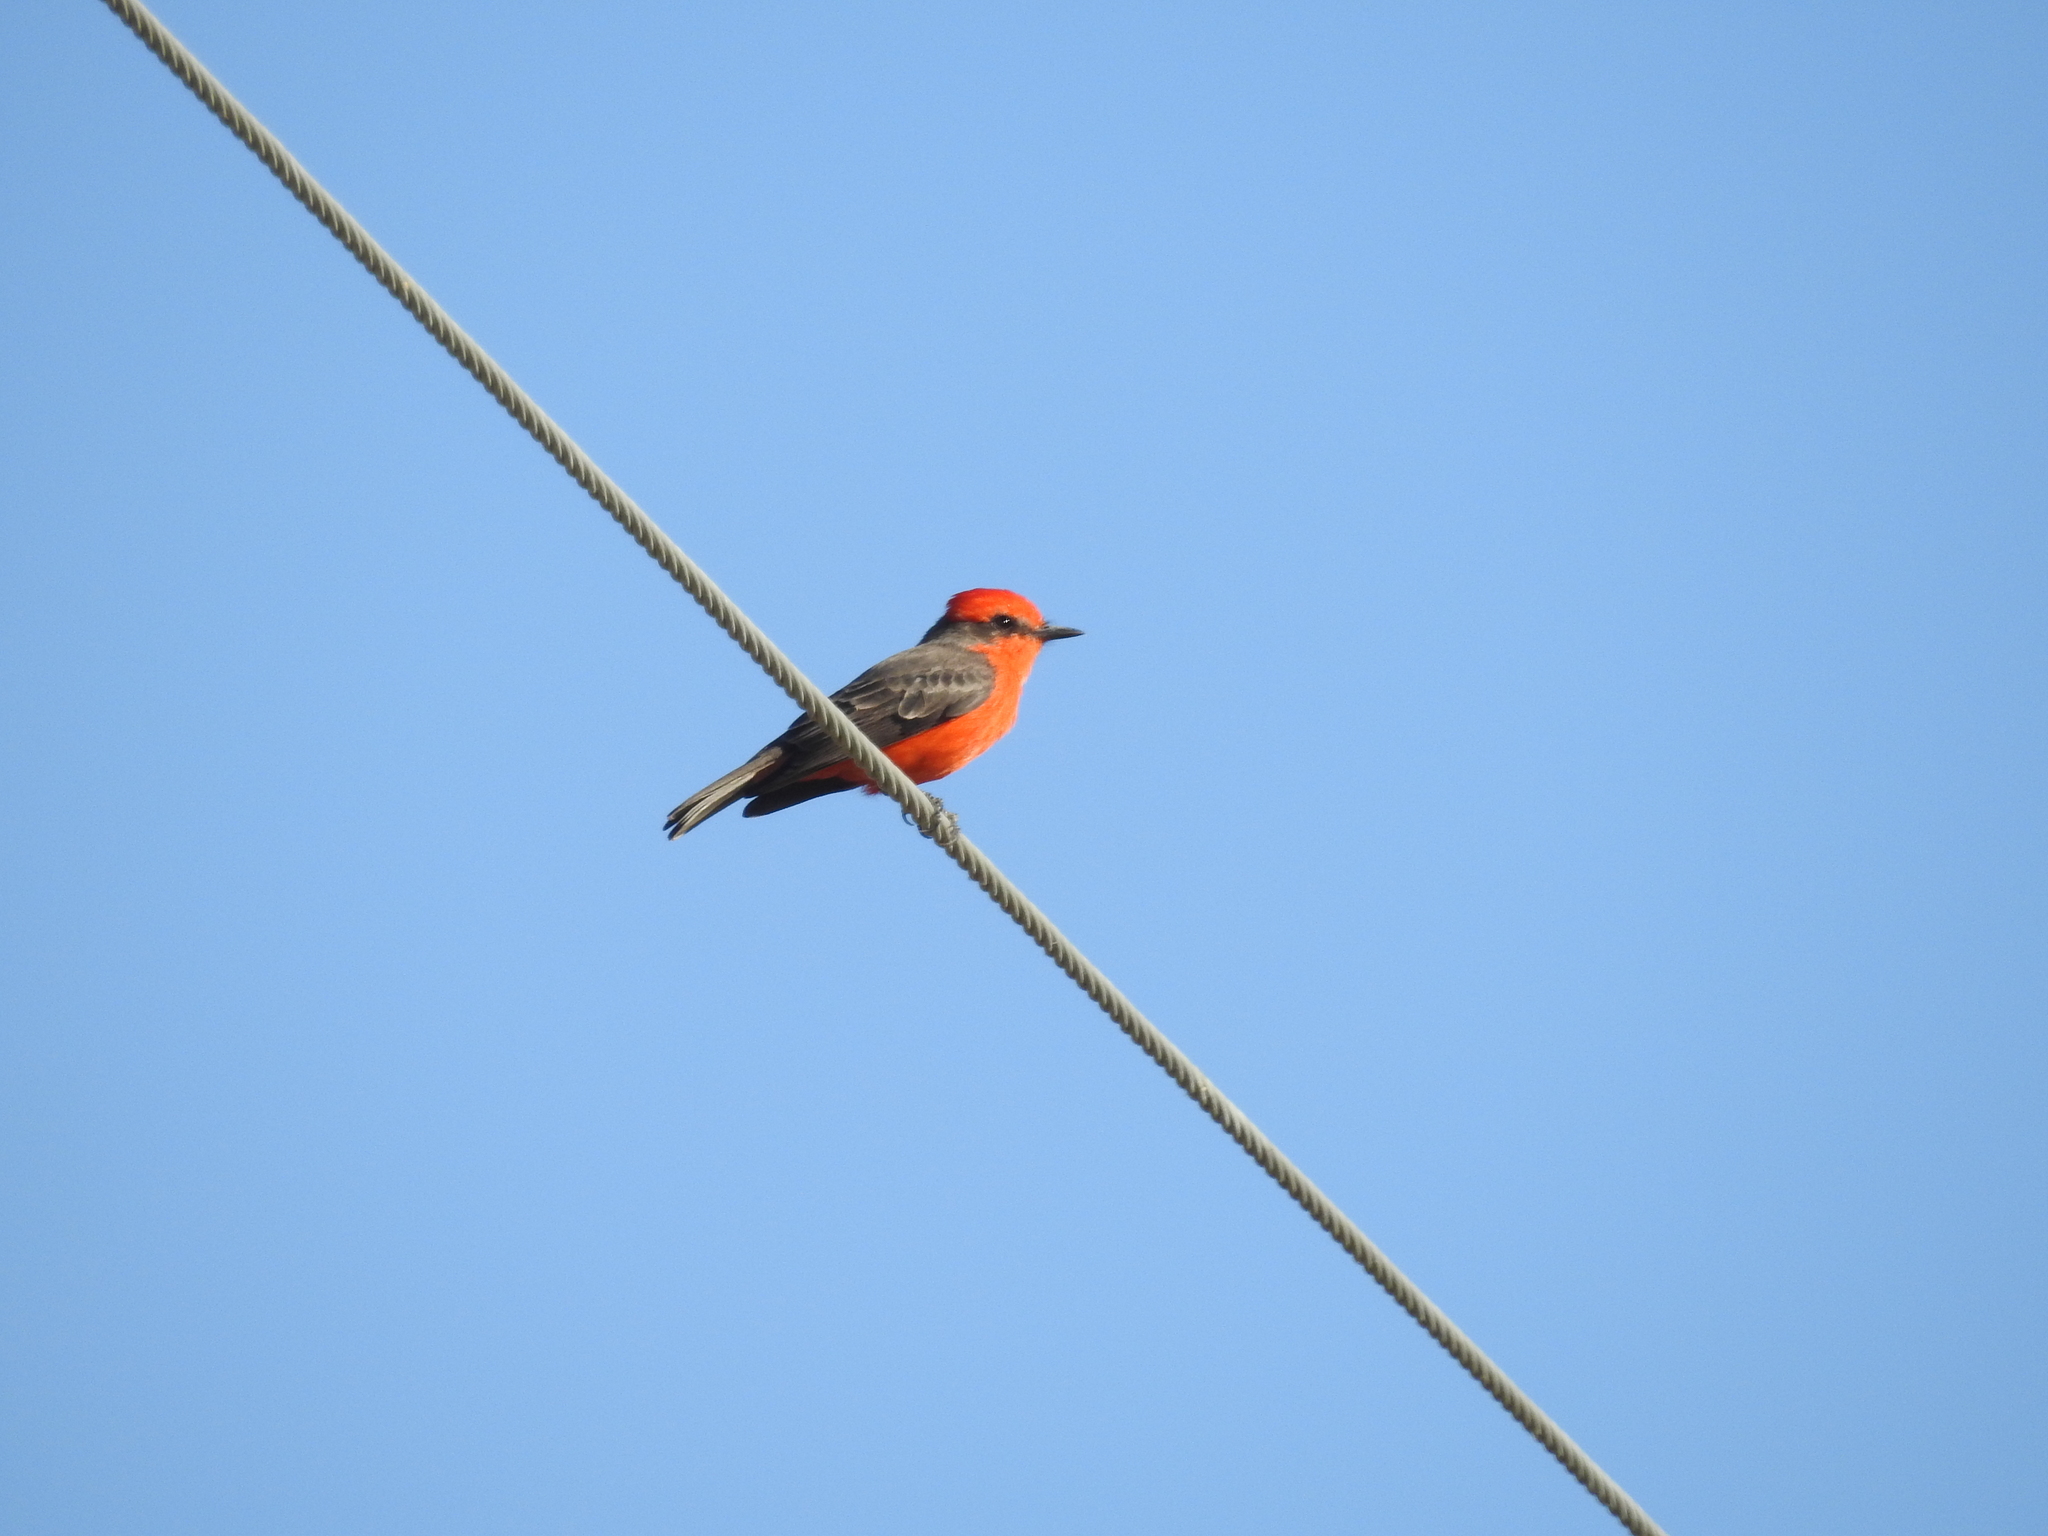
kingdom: Animalia
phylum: Chordata
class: Aves
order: Passeriformes
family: Tyrannidae
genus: Pyrocephalus
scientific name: Pyrocephalus rubinus
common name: Vermilion flycatcher
